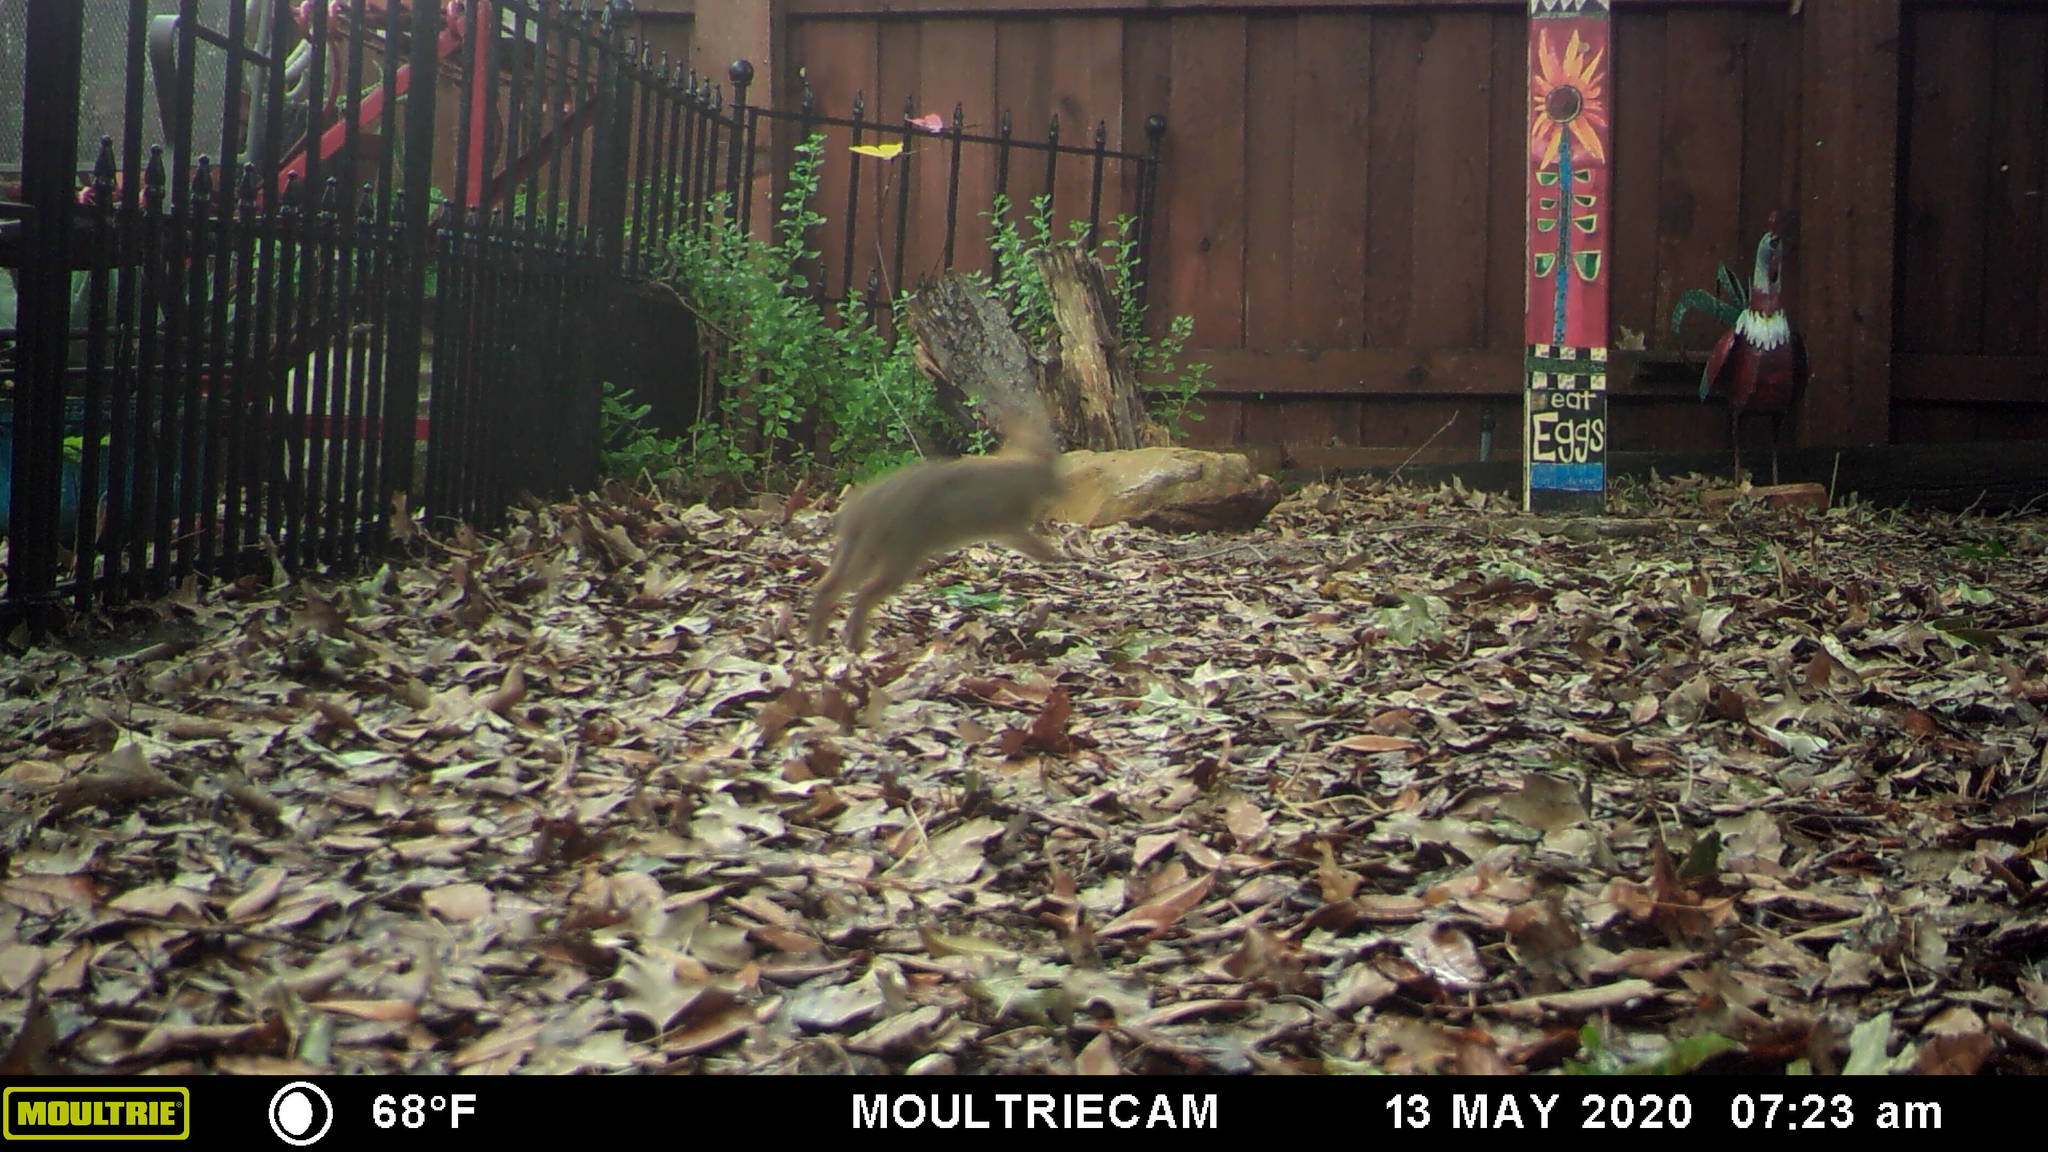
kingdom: Animalia
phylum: Chordata
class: Mammalia
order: Lagomorpha
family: Leporidae
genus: Sylvilagus
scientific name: Sylvilagus floridanus
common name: Eastern cottontail
